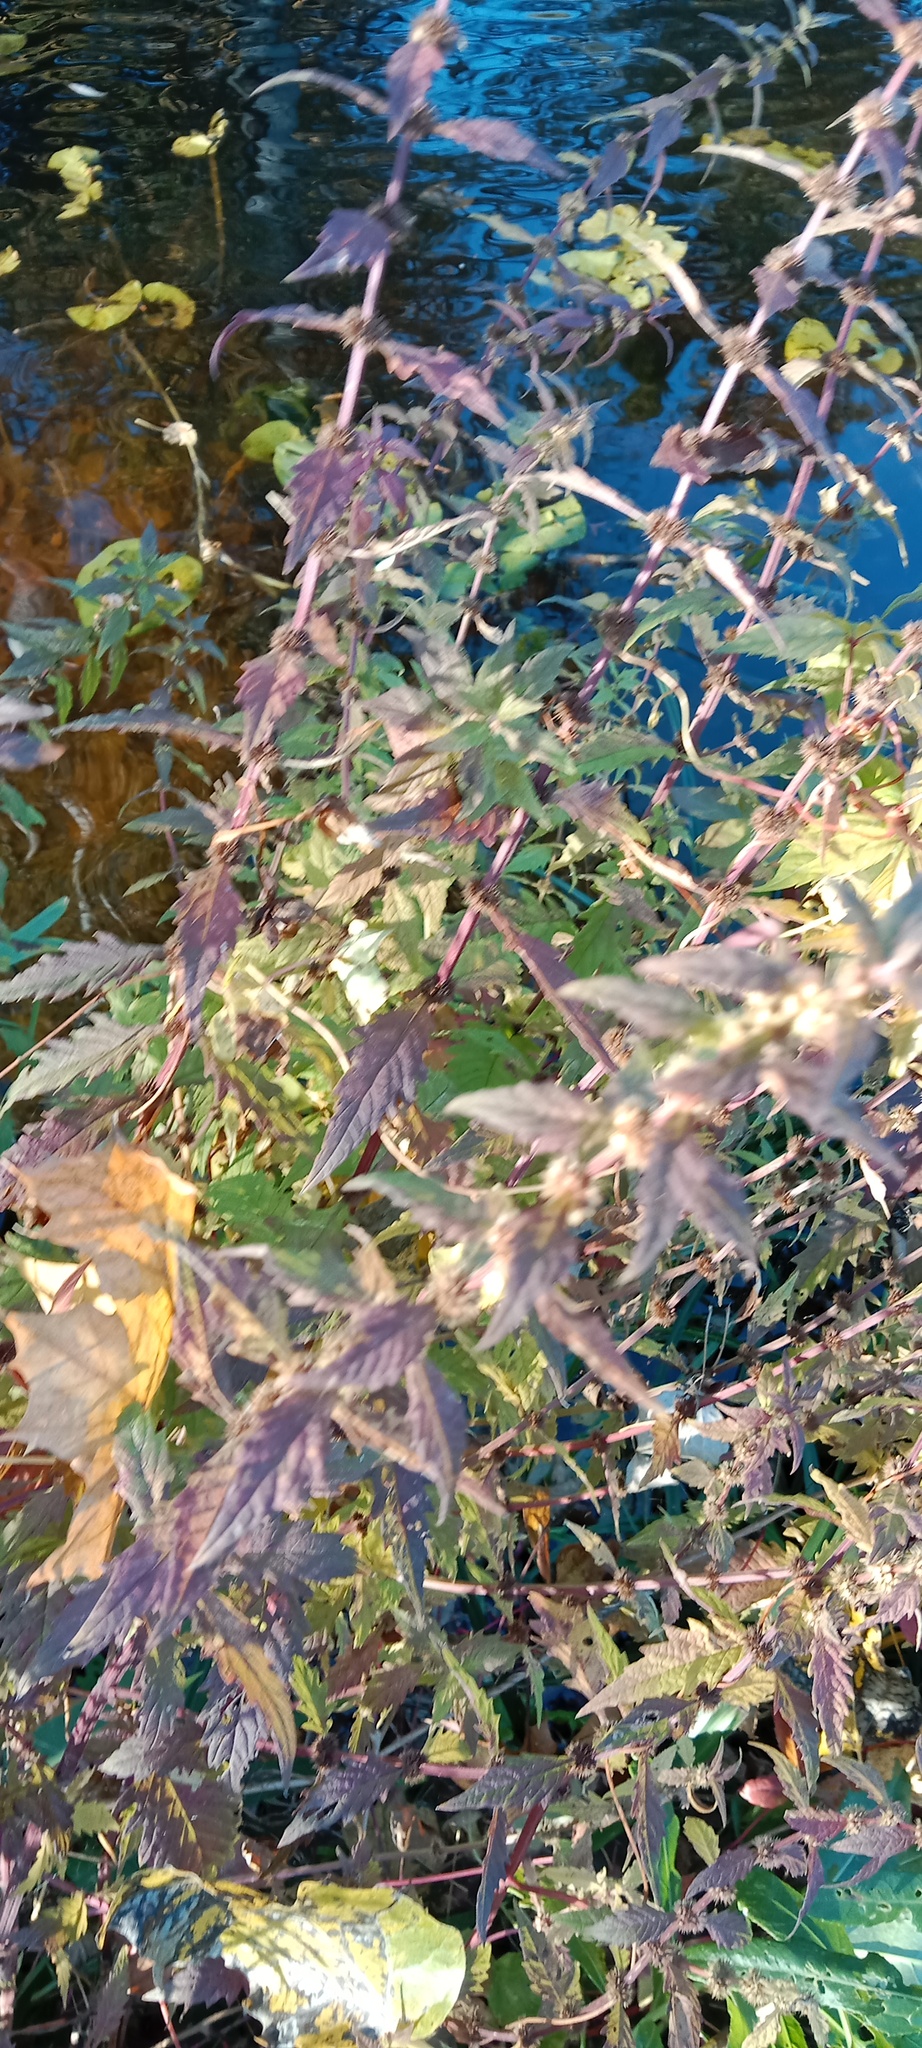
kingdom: Plantae
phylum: Tracheophyta
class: Magnoliopsida
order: Lamiales
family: Lamiaceae
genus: Lycopus
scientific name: Lycopus europaeus
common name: European bugleweed
